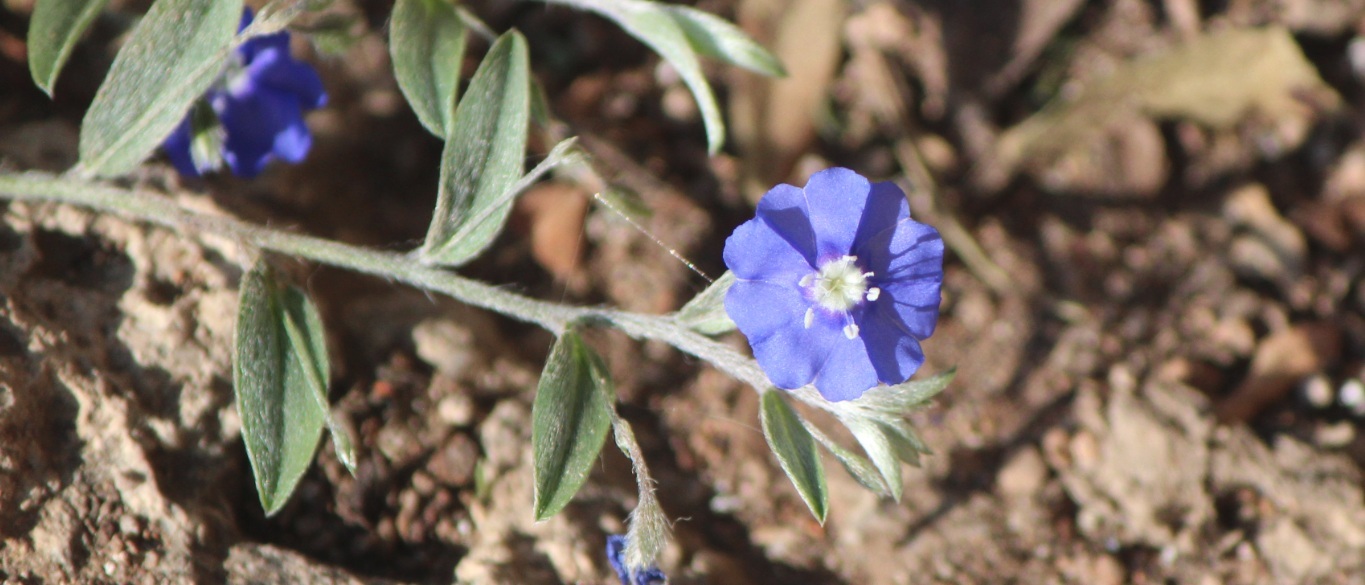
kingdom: Plantae
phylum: Tracheophyta
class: Magnoliopsida
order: Solanales
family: Convolvulaceae
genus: Evolvulus
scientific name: Evolvulus alsinoides
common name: Slender dwarf morning-glory
